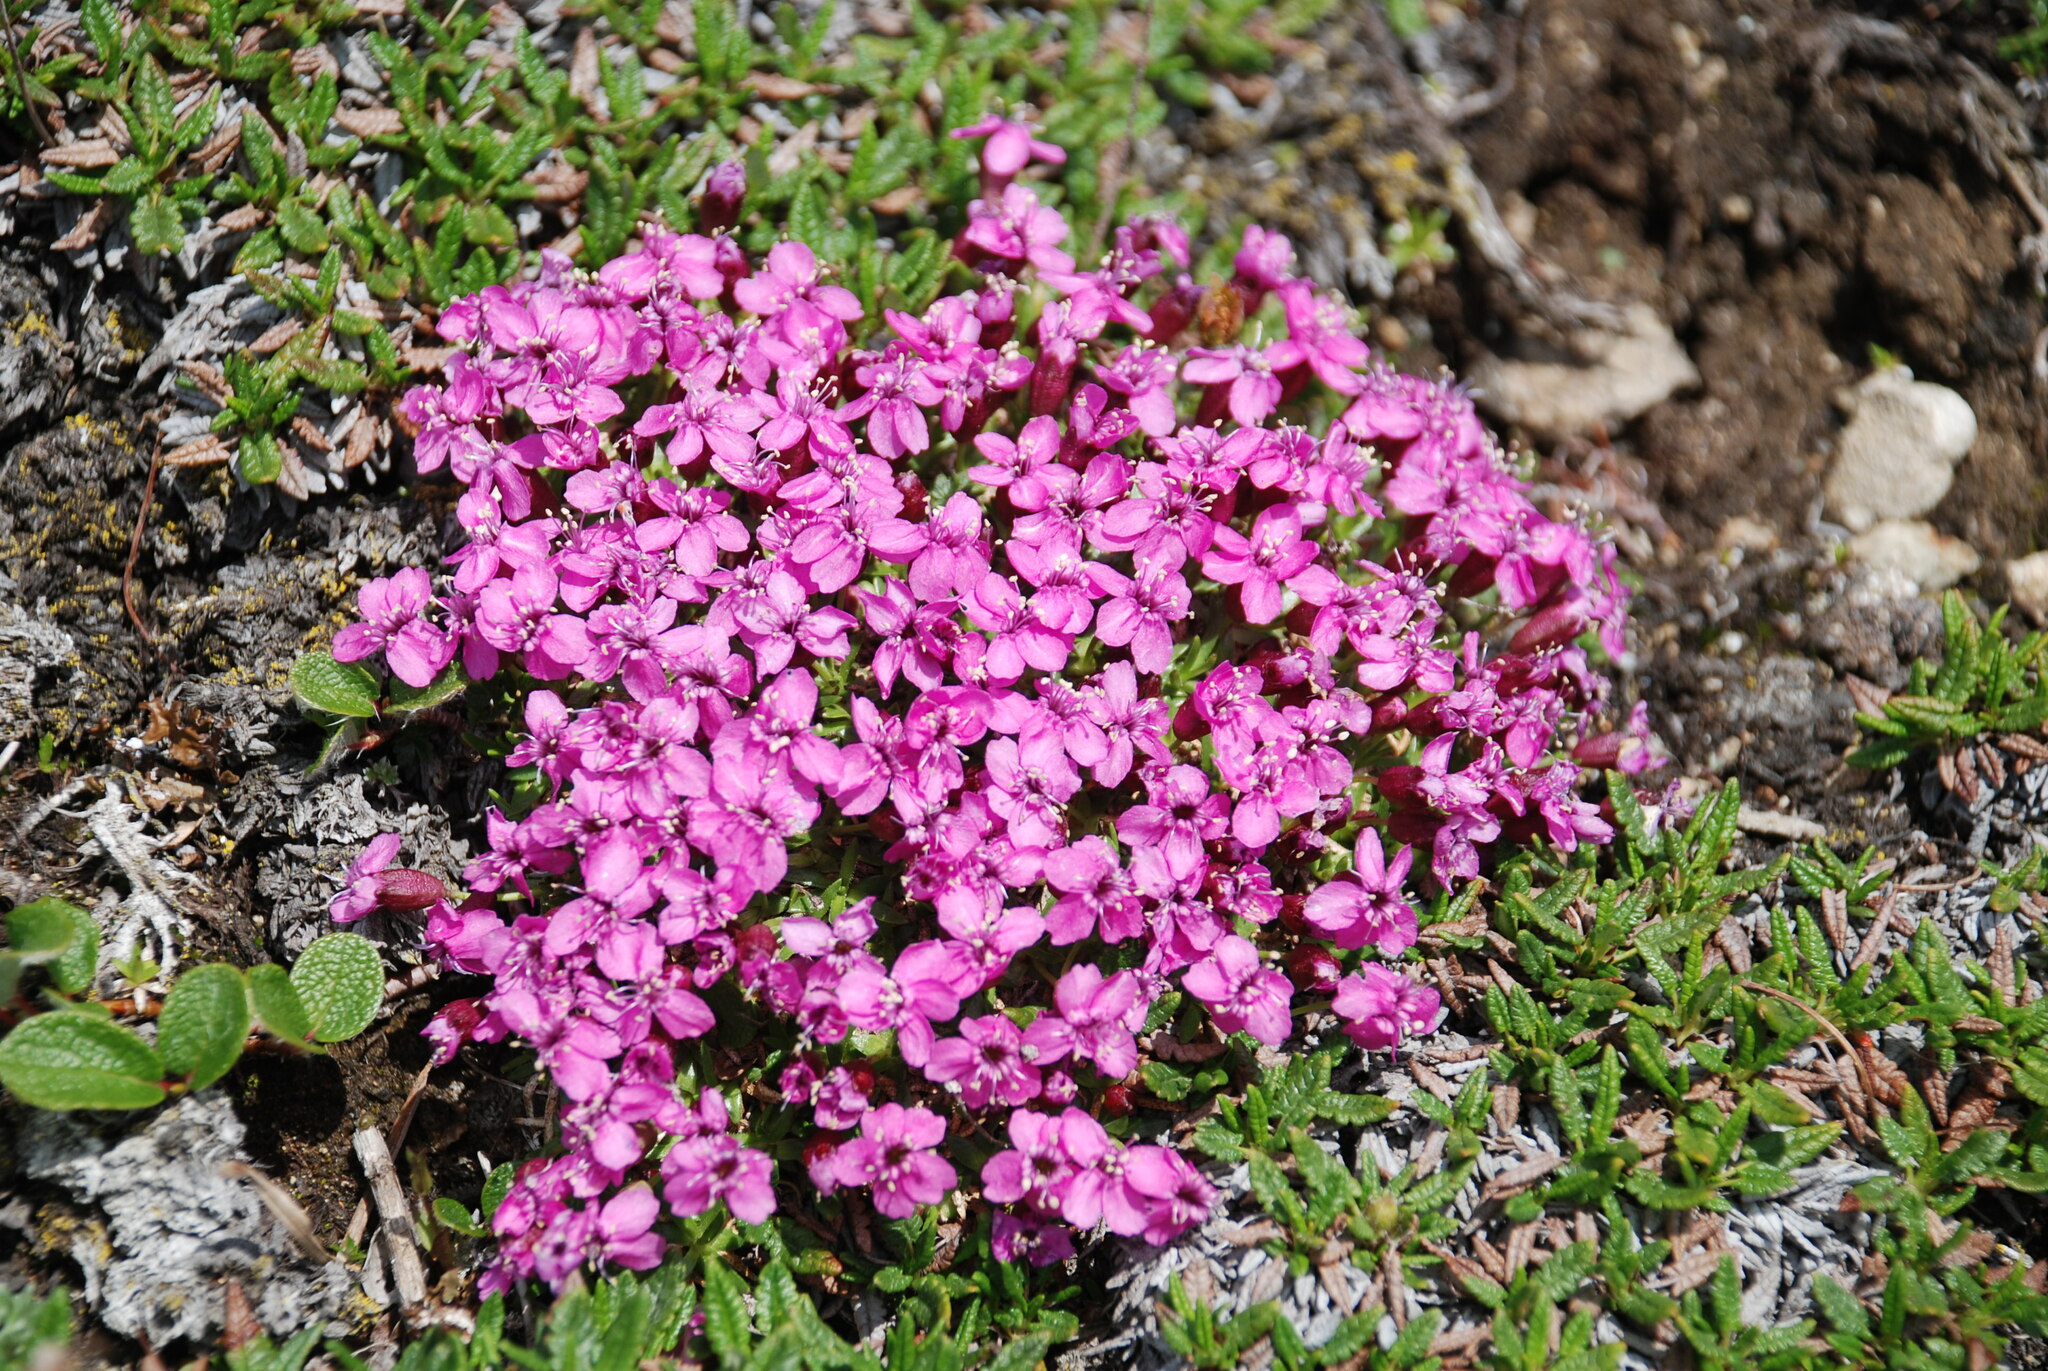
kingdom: Plantae
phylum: Tracheophyta
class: Magnoliopsida
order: Caryophyllales
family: Caryophyllaceae
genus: Silene
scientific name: Silene acaulis
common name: Moss campion
